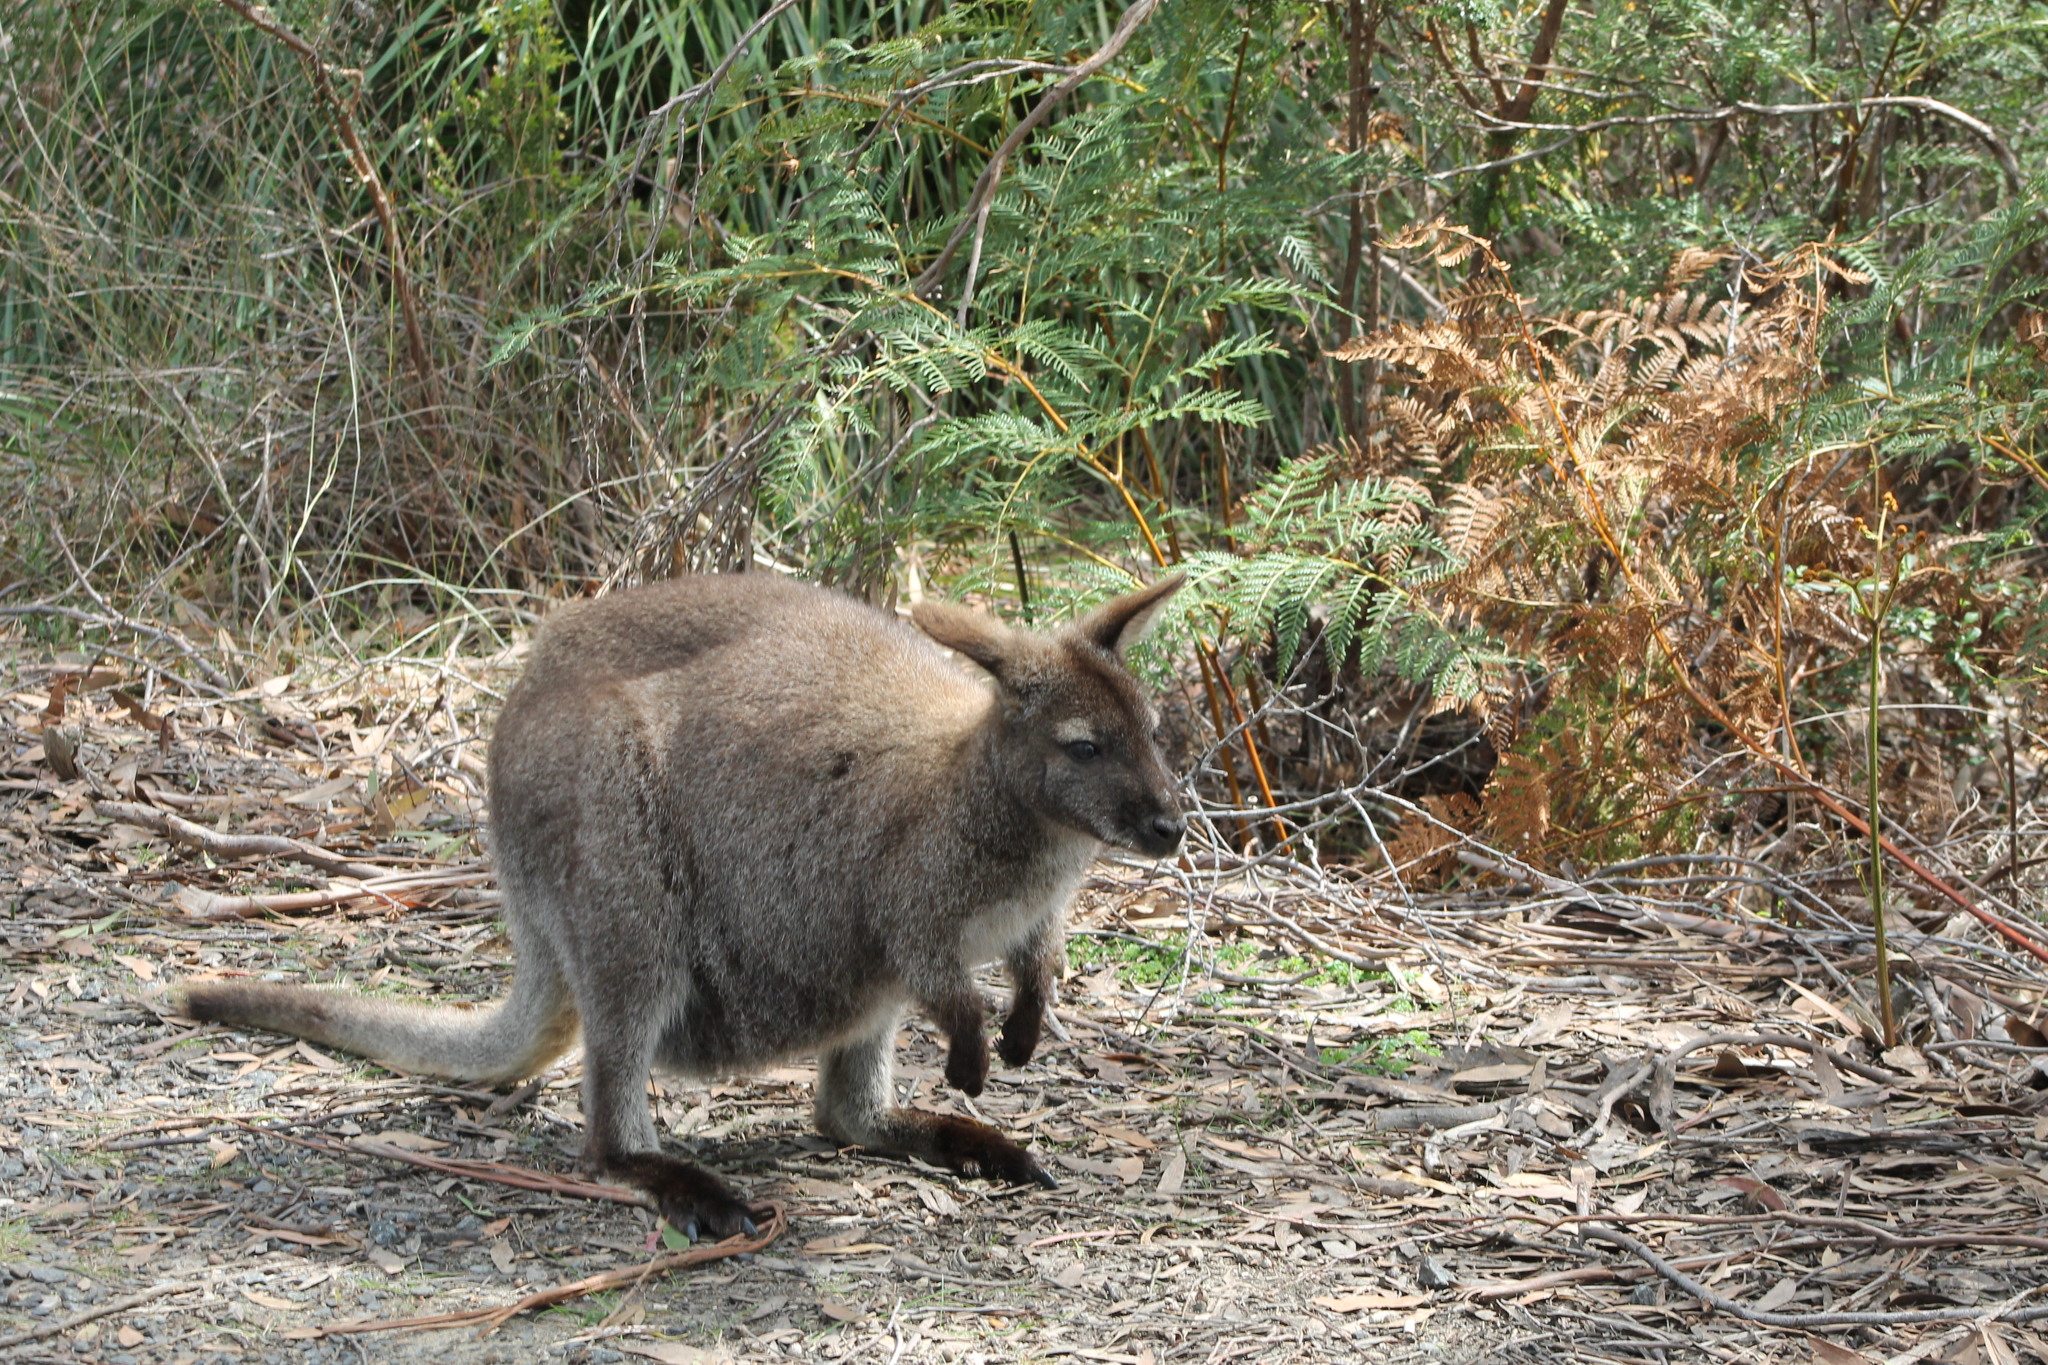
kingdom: Animalia
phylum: Chordata
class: Mammalia
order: Diprotodontia
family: Macropodidae
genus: Notamacropus
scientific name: Notamacropus rufogriseus
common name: Red-necked wallaby
